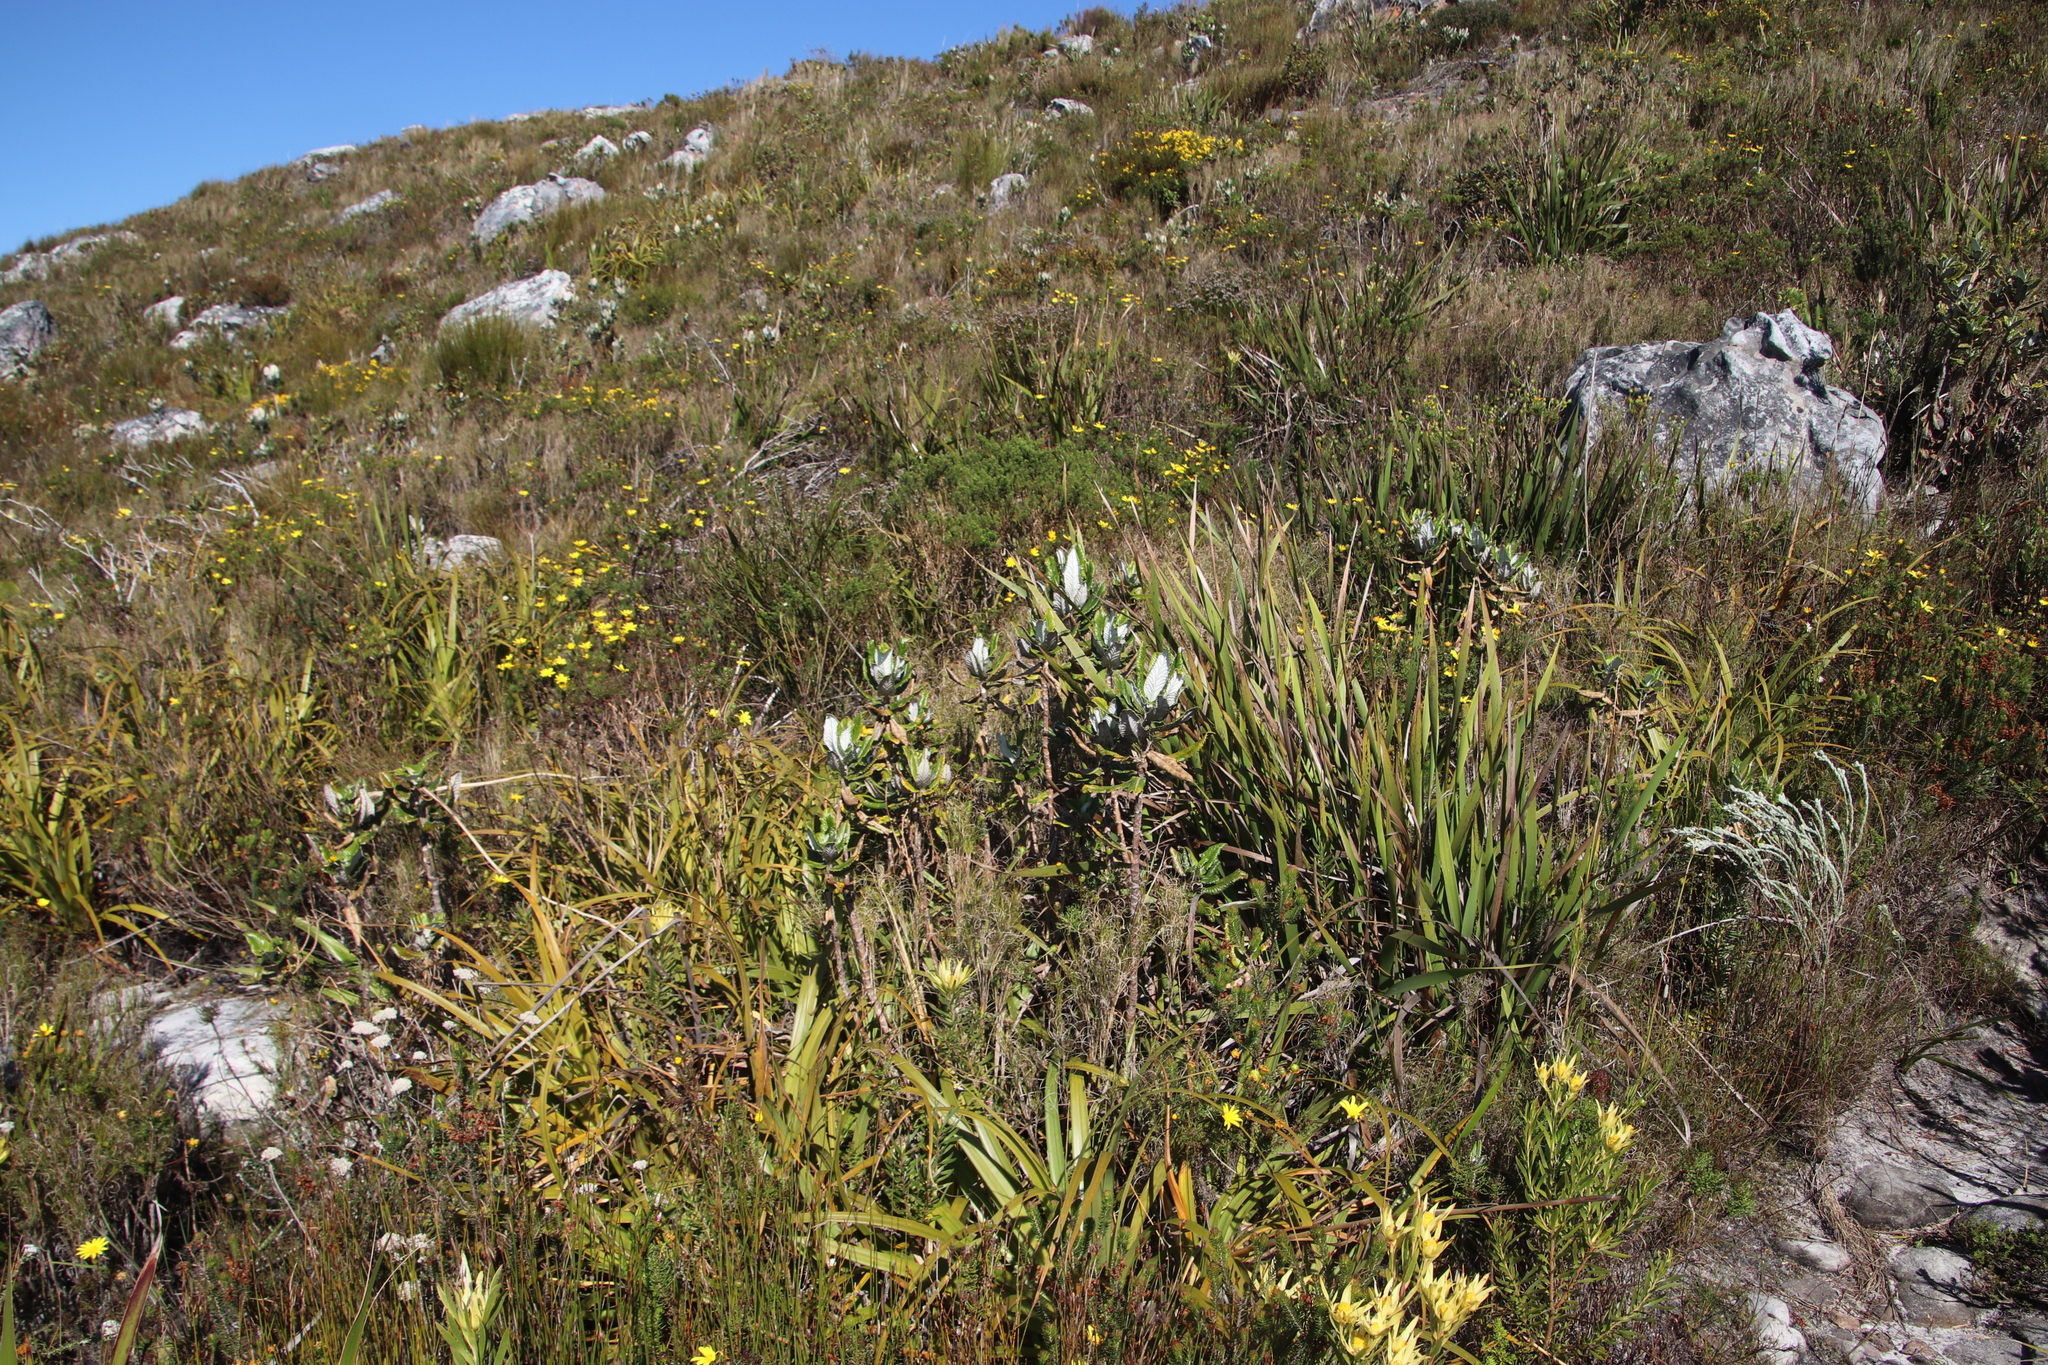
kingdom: Plantae
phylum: Tracheophyta
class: Magnoliopsida
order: Apiales
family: Apiaceae
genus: Hermas
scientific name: Hermas villosa
